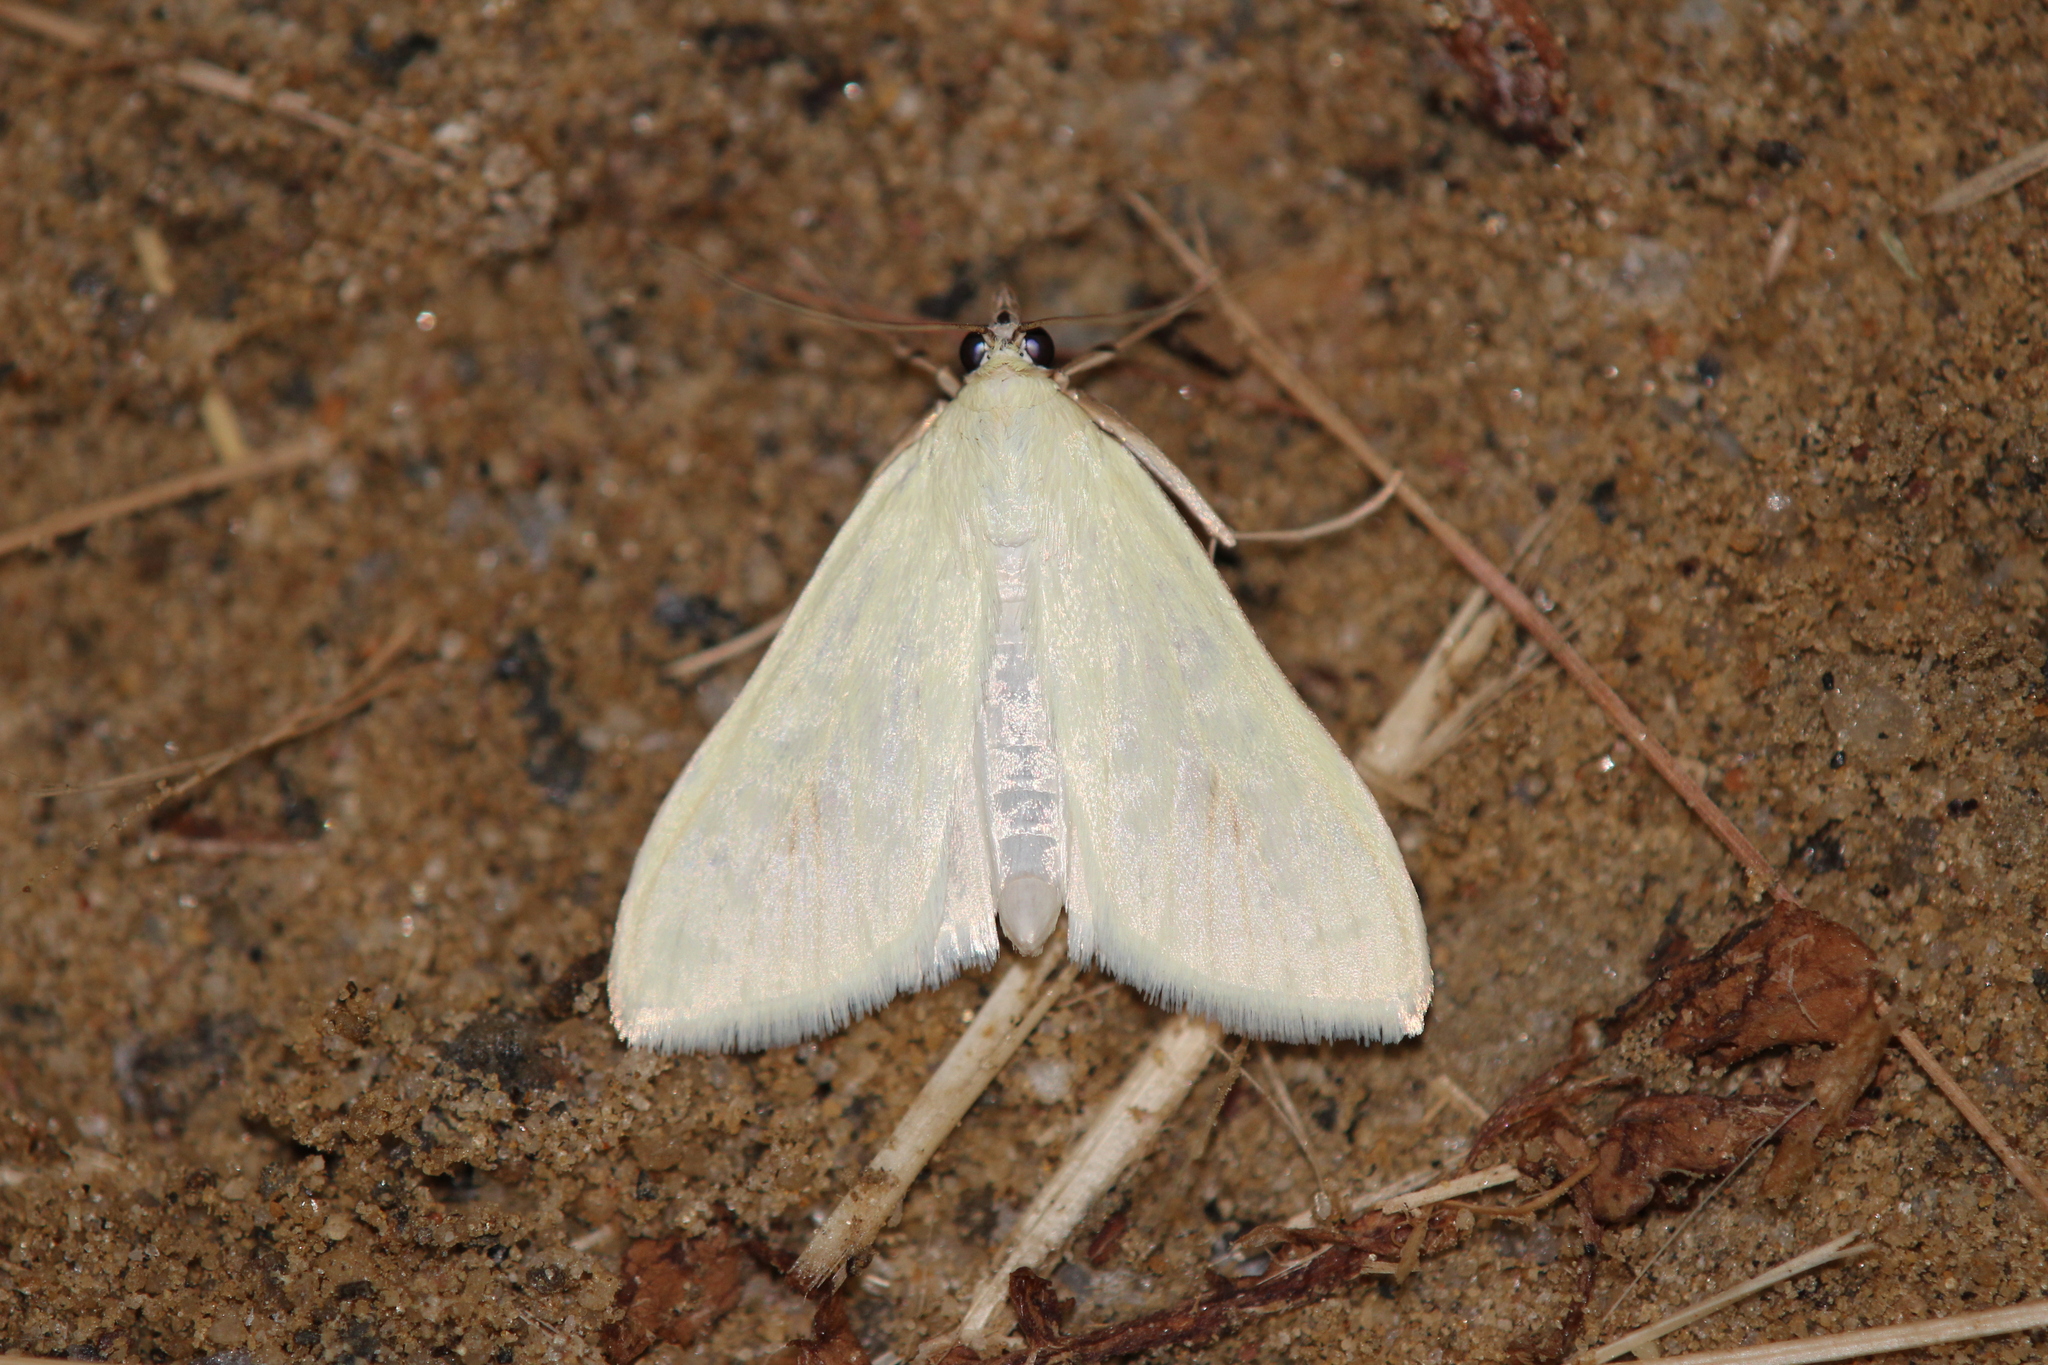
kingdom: Animalia
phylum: Arthropoda
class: Insecta
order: Lepidoptera
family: Crambidae
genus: Sitochroa
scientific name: Sitochroa palealis
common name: Greenish-yellow sitochroa moth
